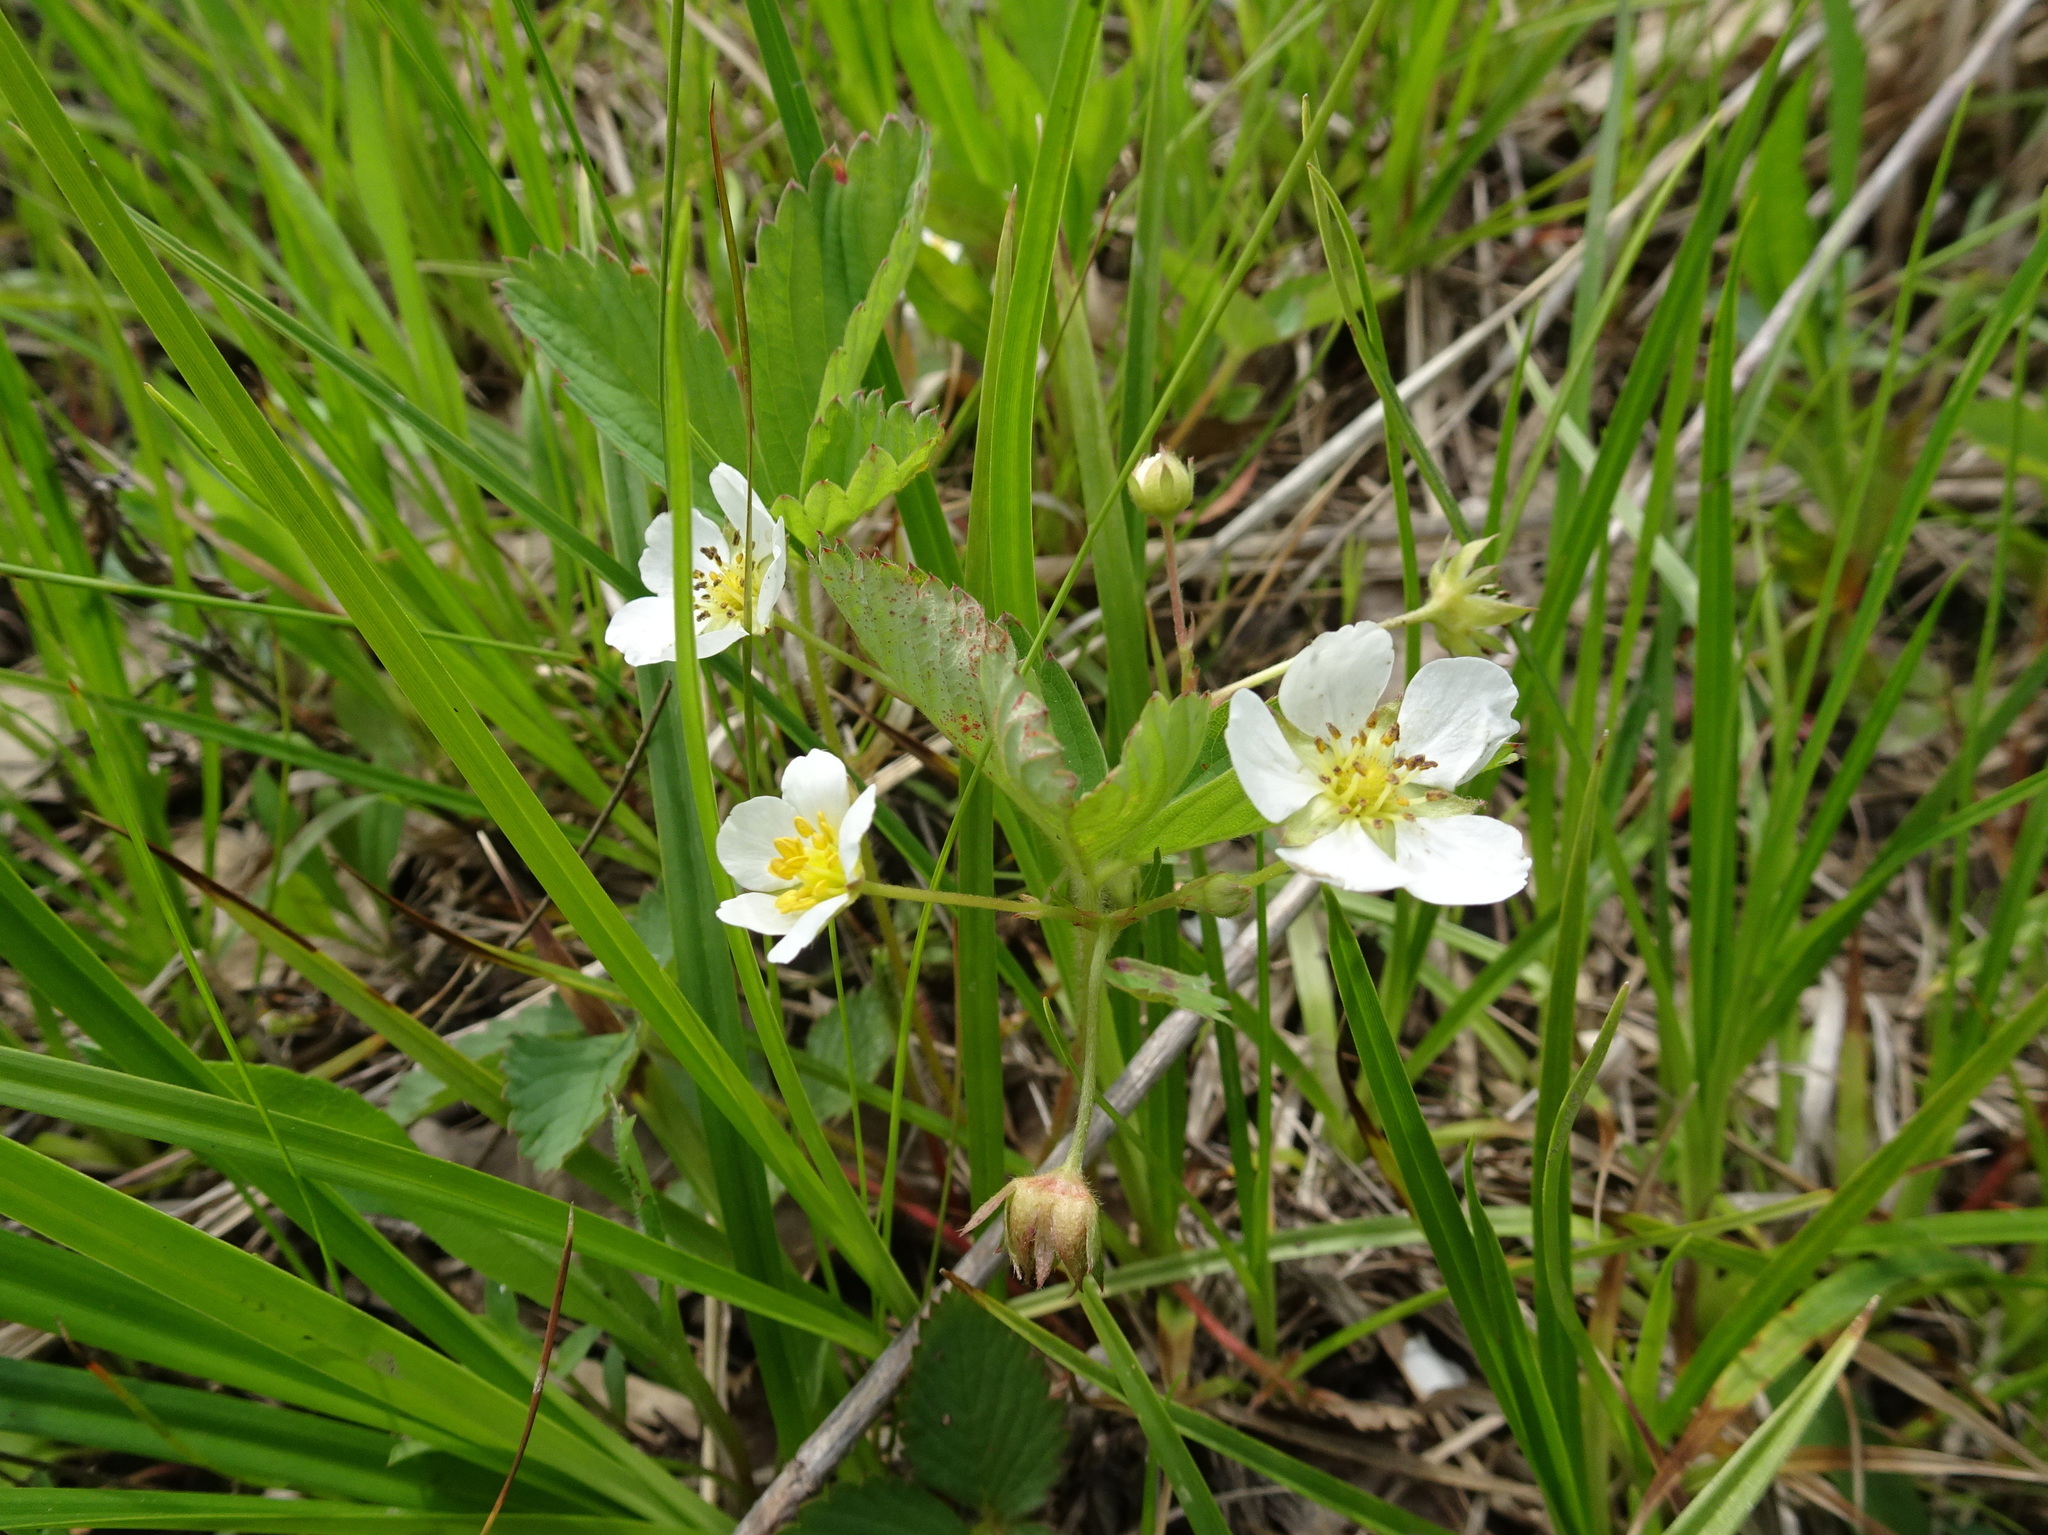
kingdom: Plantae
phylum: Tracheophyta
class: Magnoliopsida
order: Rosales
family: Rosaceae
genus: Fragaria
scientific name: Fragaria virginiana
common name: Thickleaved wild strawberry
